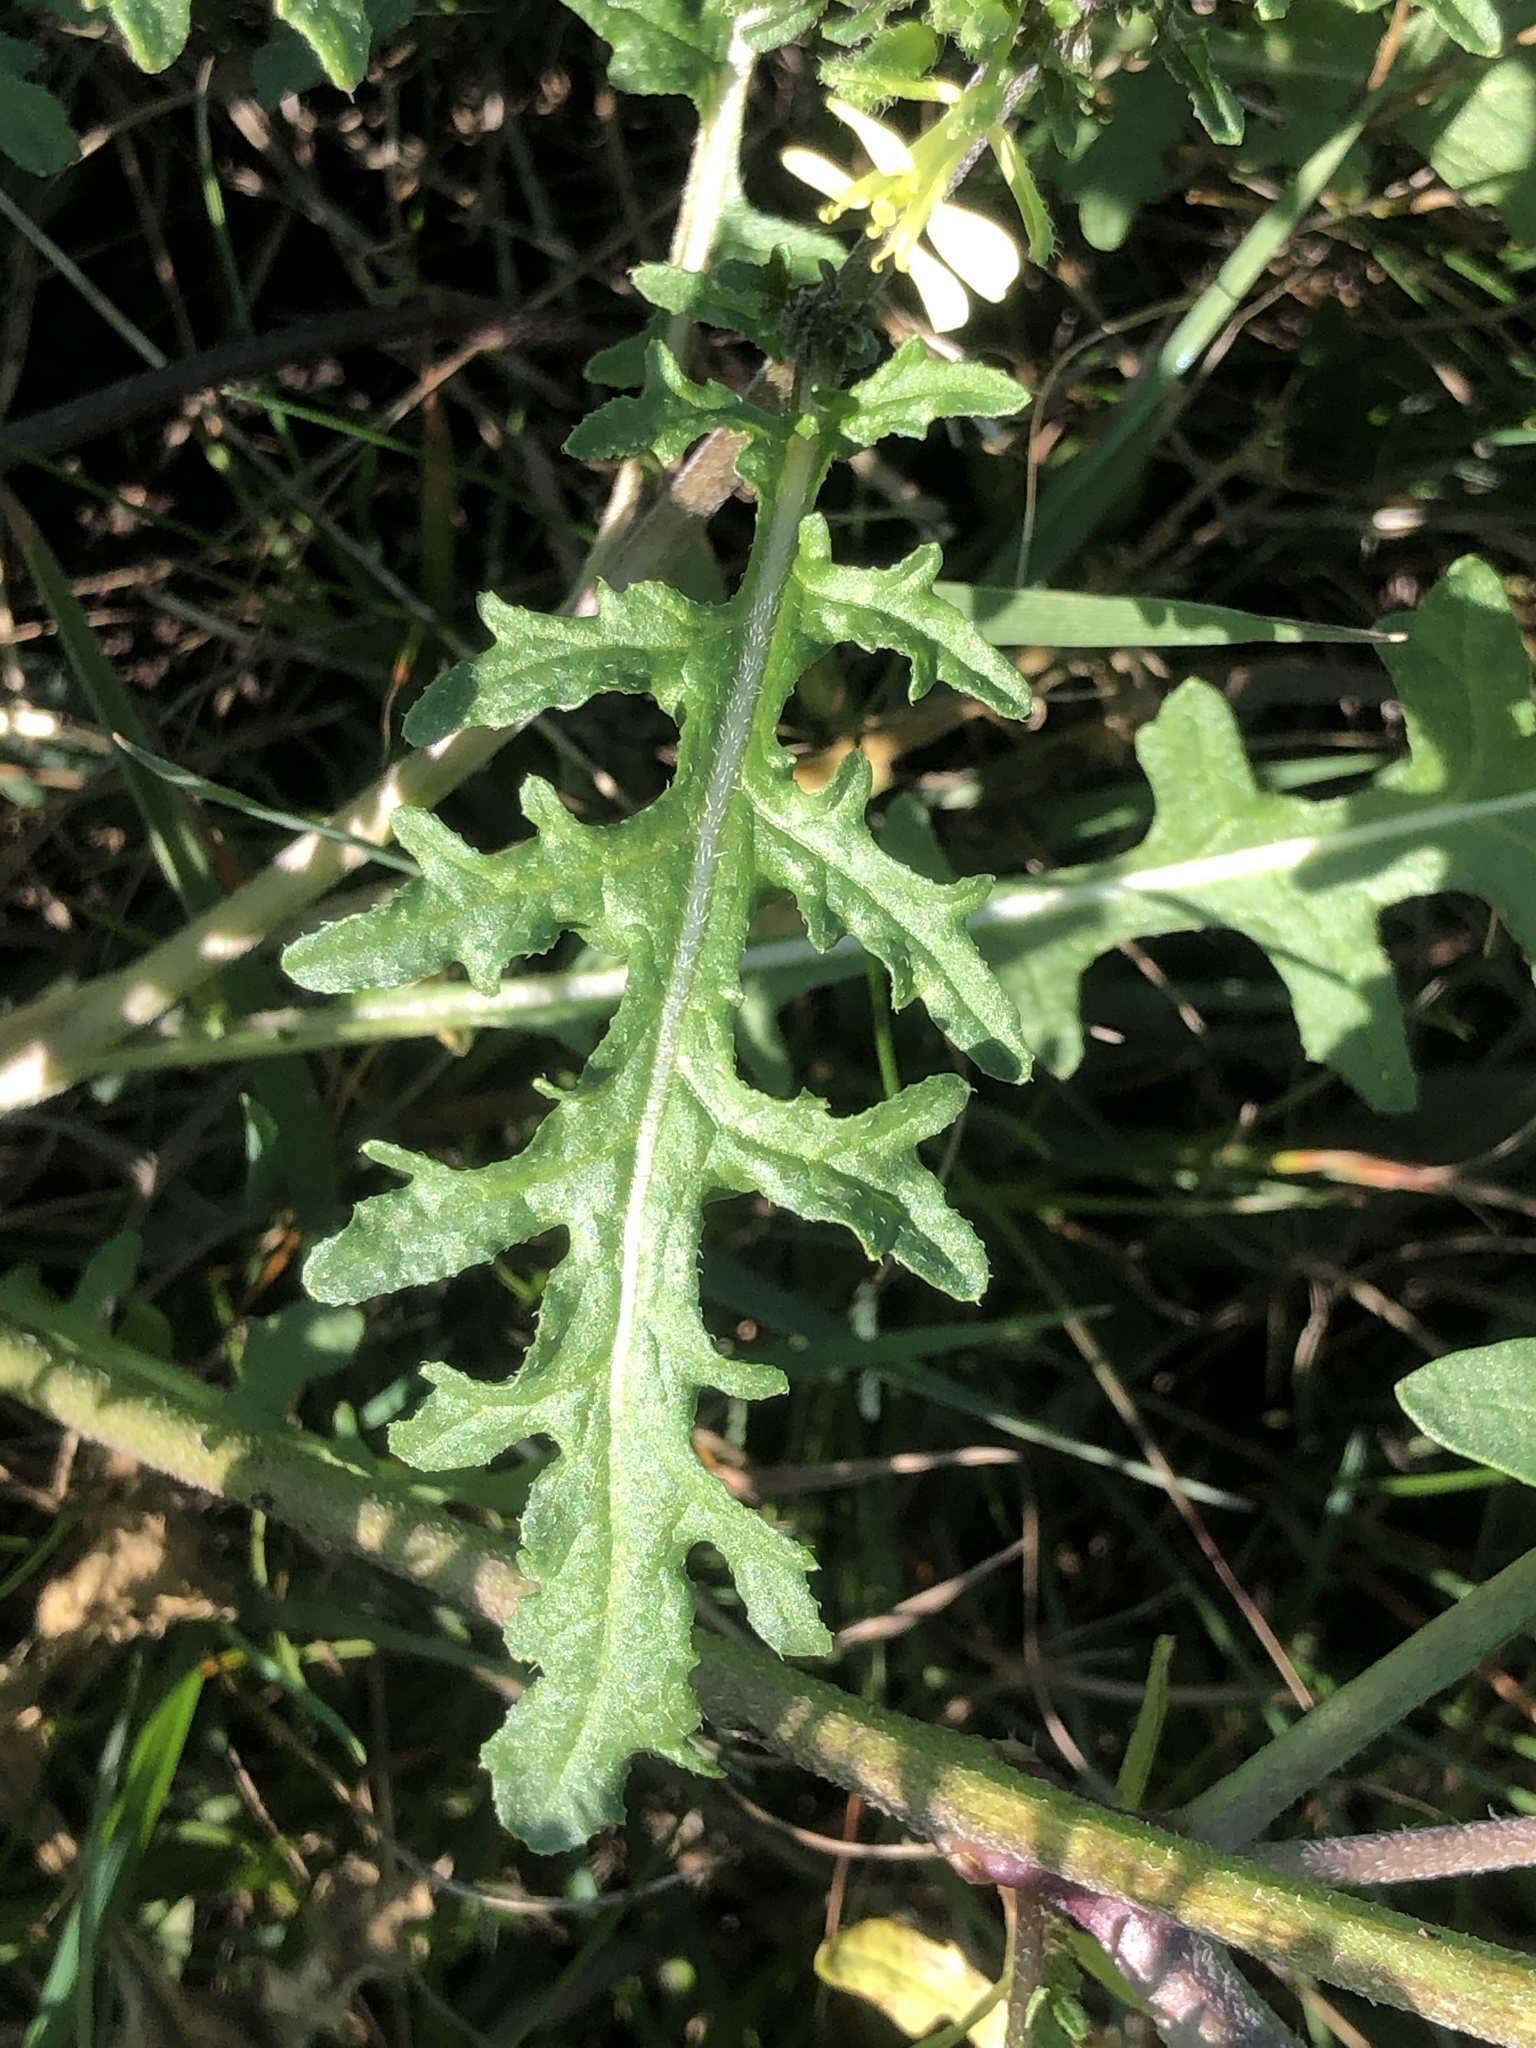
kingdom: Plantae
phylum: Tracheophyta
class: Magnoliopsida
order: Brassicales
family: Brassicaceae
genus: Erucastrum
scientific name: Erucastrum gallicum
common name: Hairy rocket
